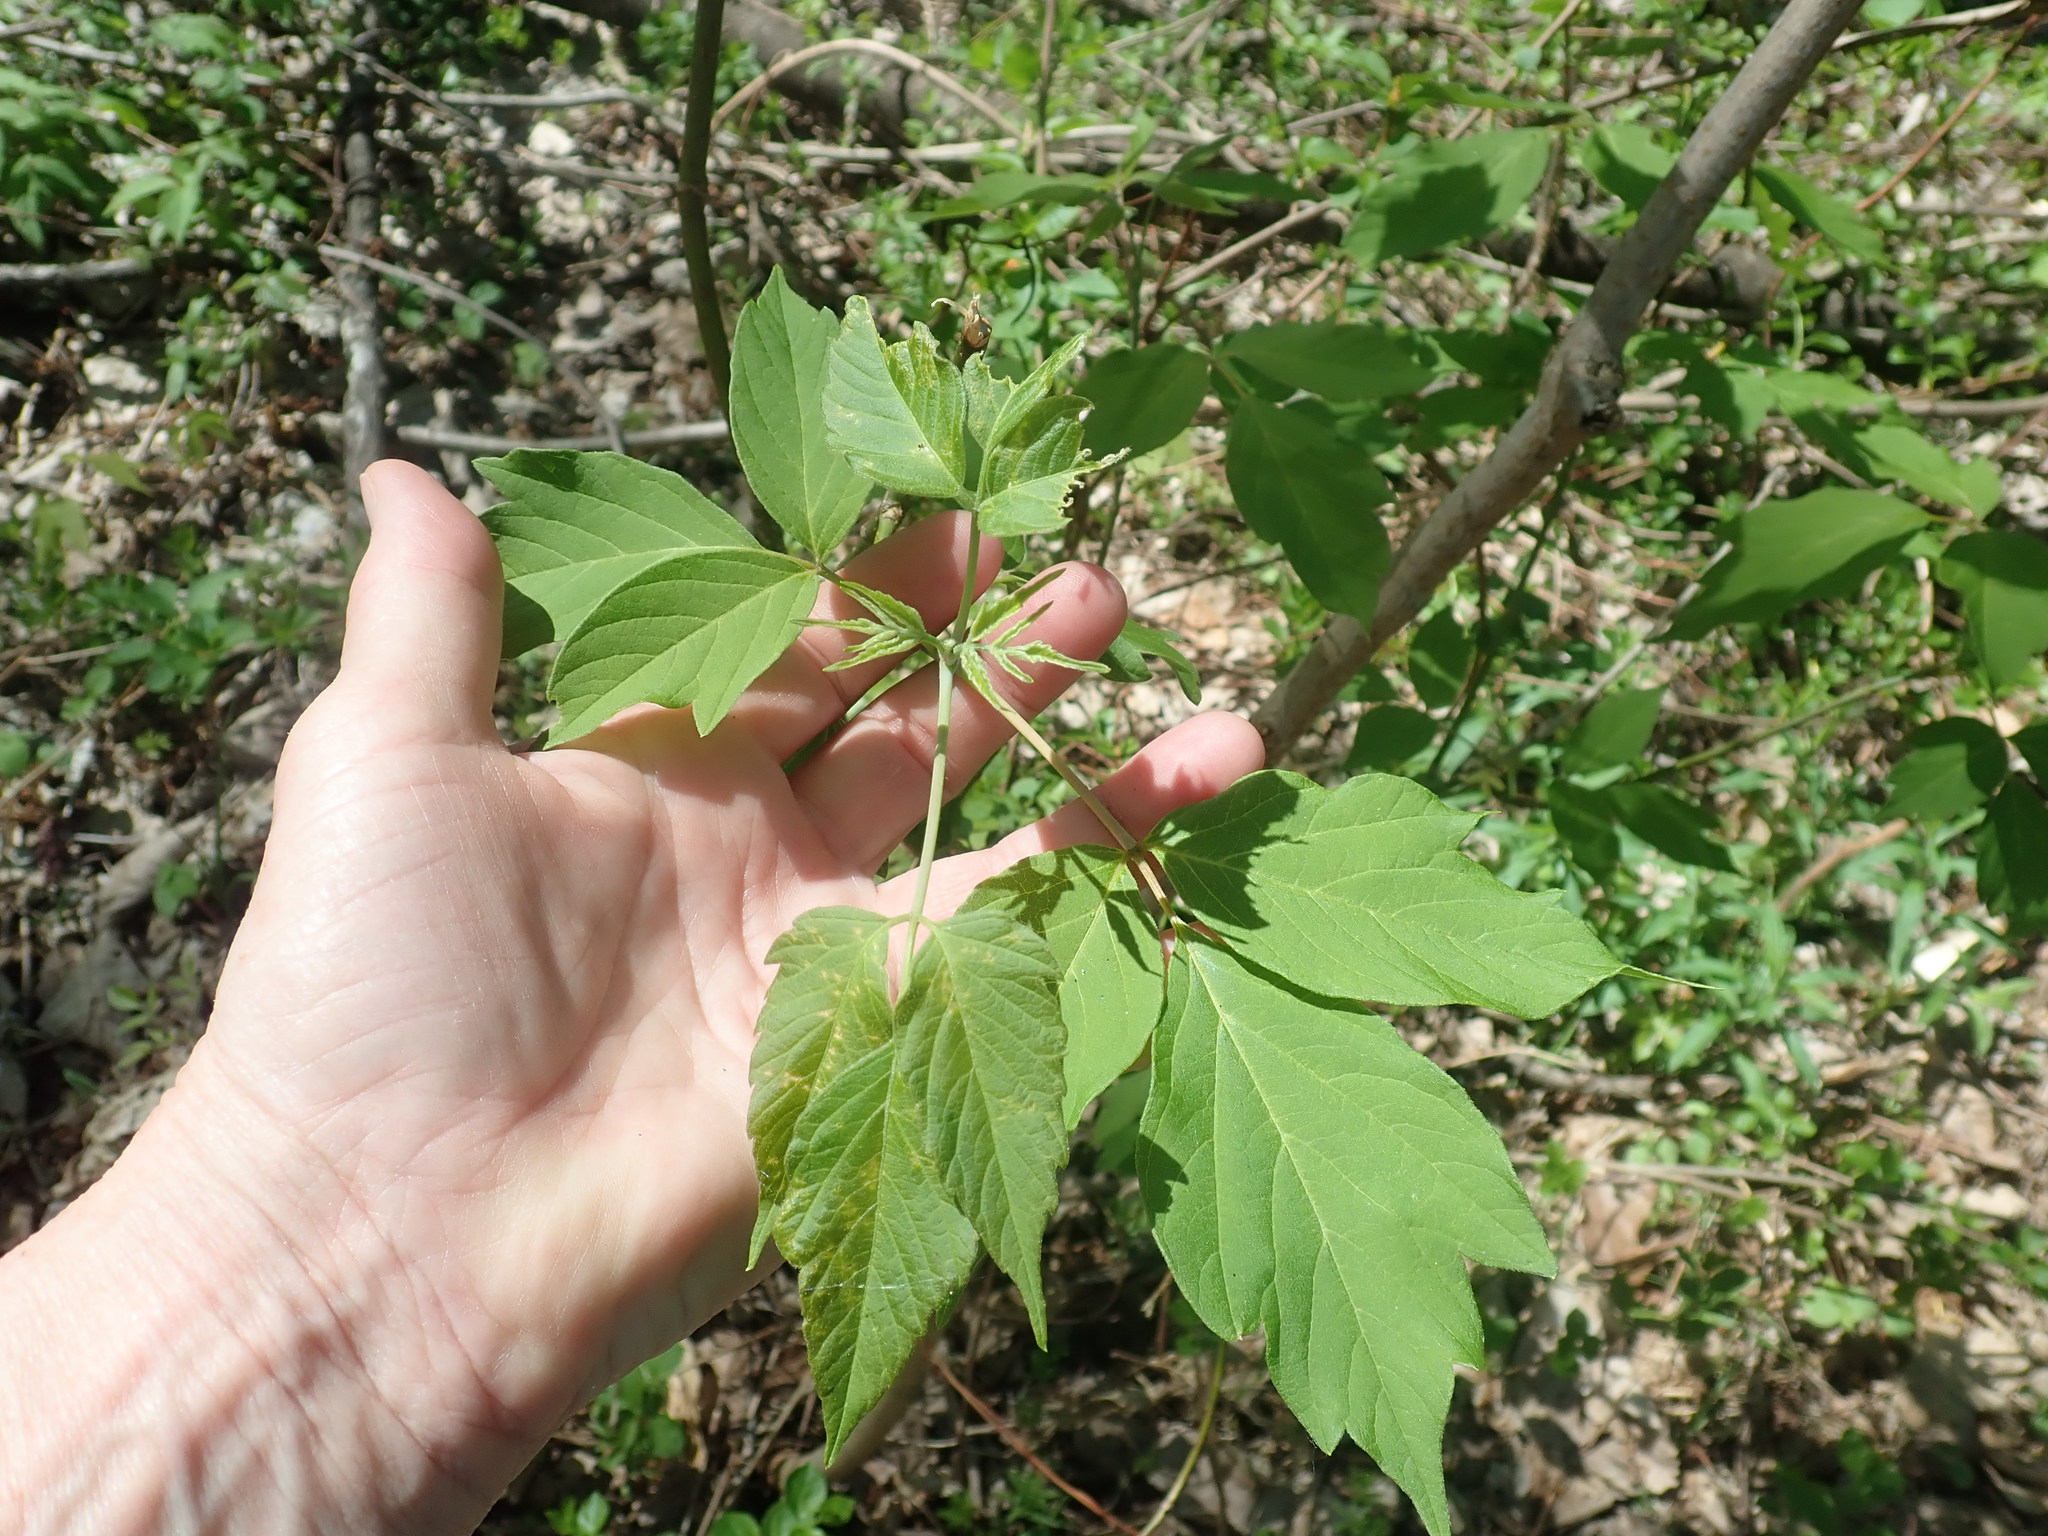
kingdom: Plantae
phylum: Tracheophyta
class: Magnoliopsida
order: Sapindales
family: Sapindaceae
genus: Acer
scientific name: Acer negundo
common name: Ashleaf maple
